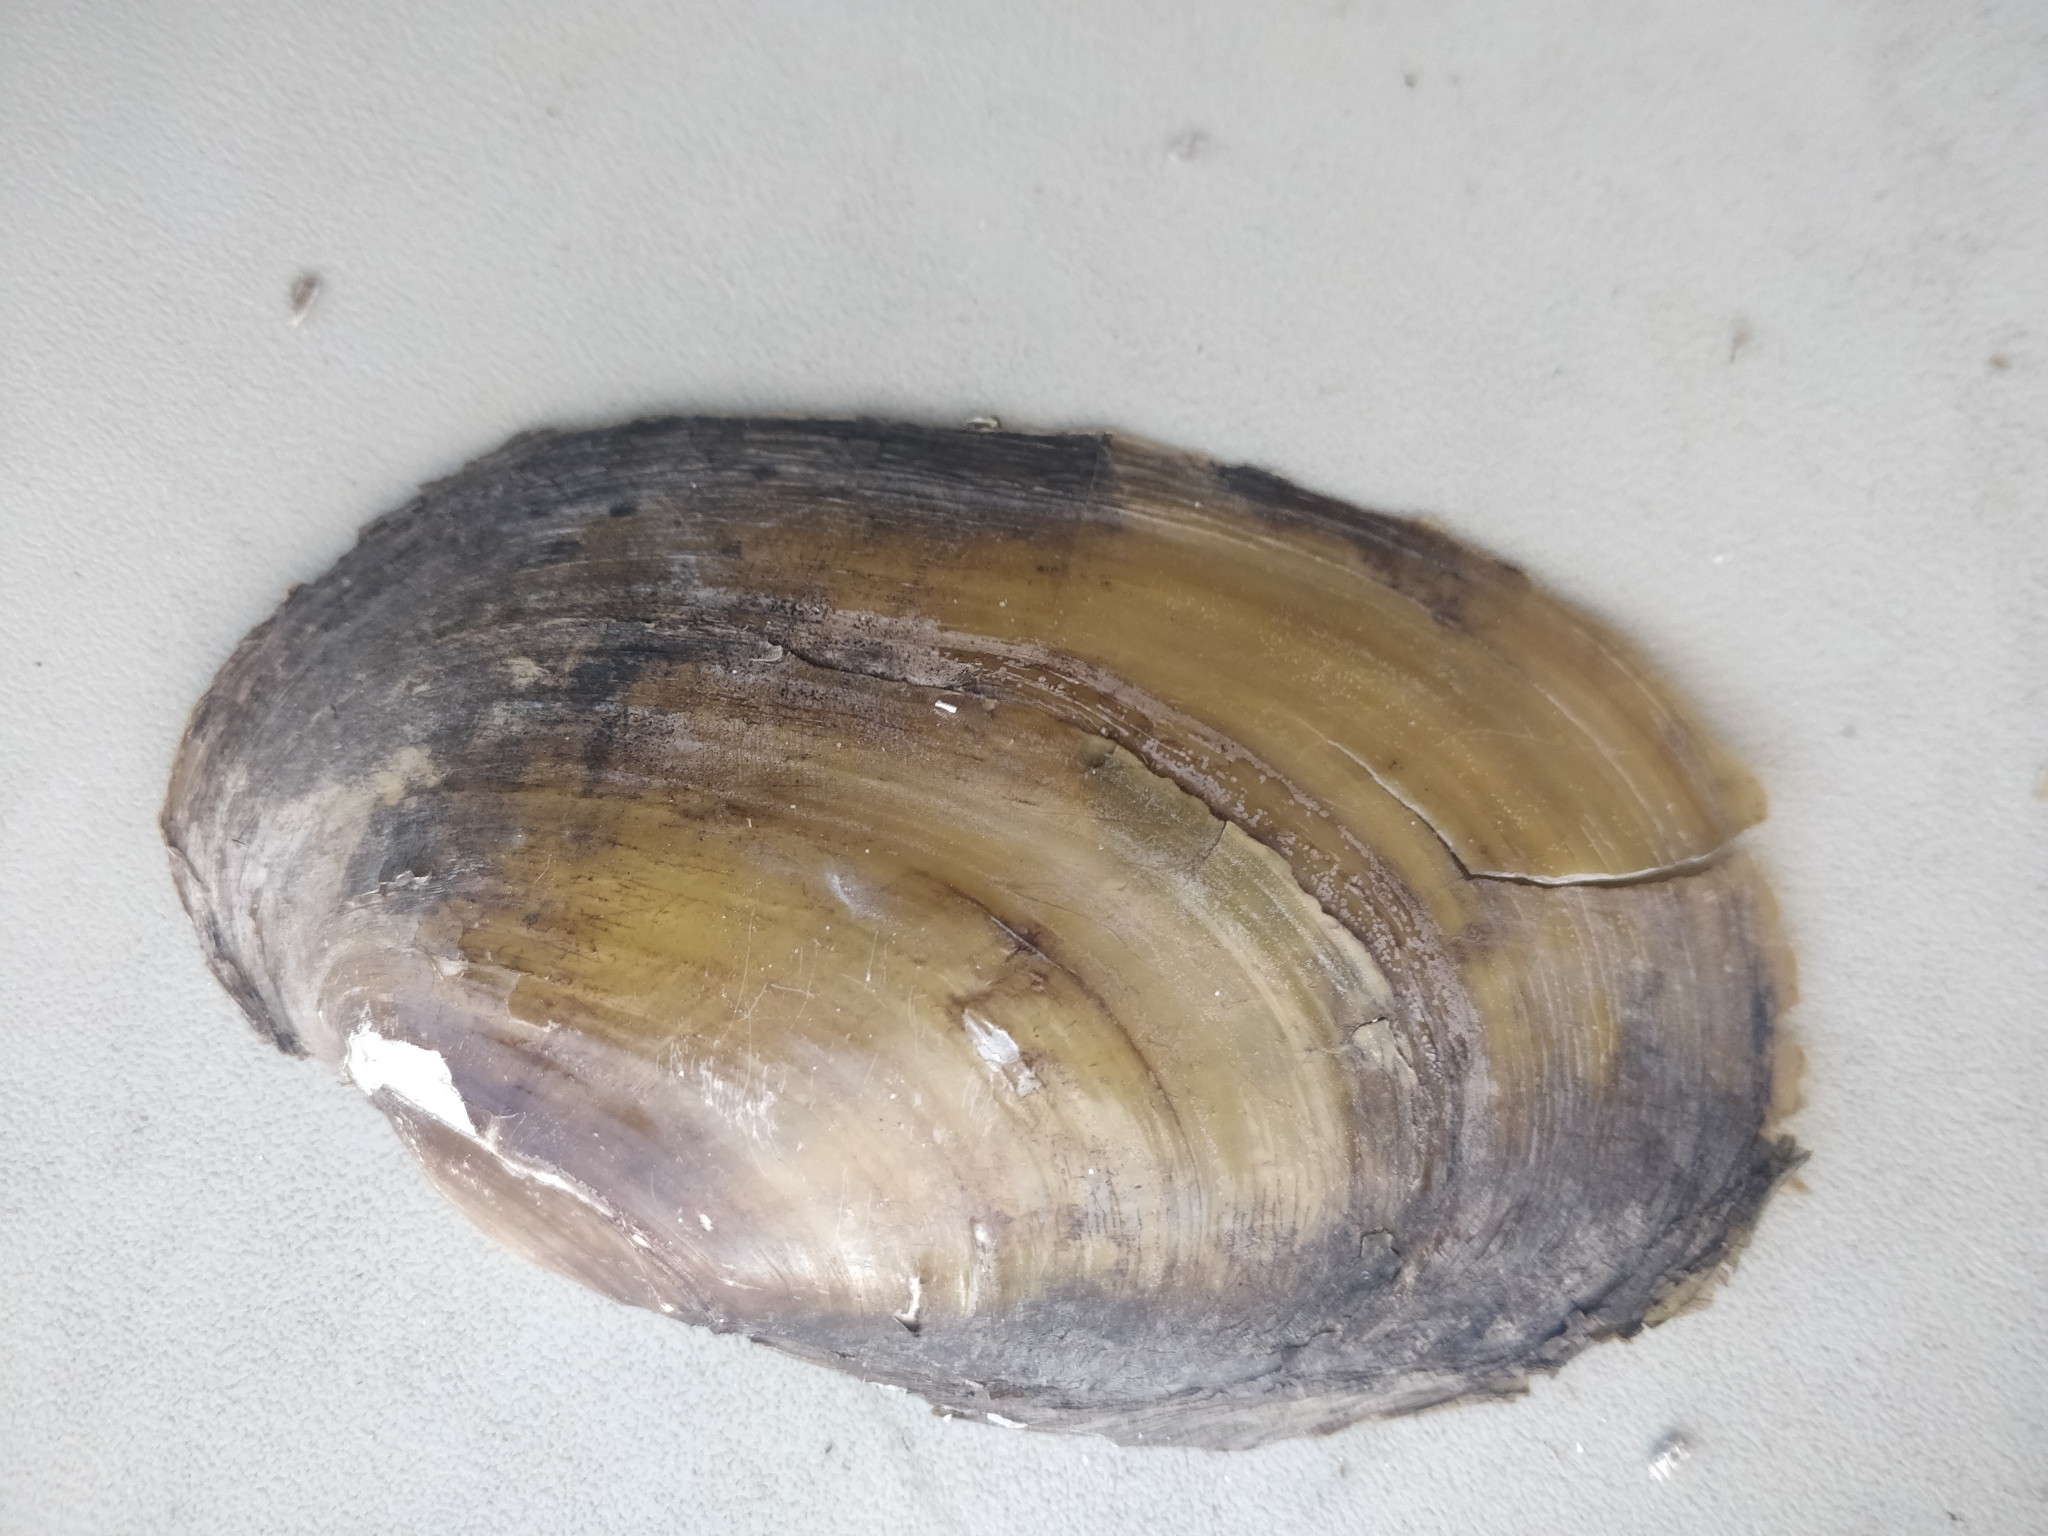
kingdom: Animalia
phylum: Mollusca
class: Bivalvia
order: Unionida
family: Unionidae
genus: Potamilus
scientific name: Potamilus fragilis
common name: Fragile papershell
